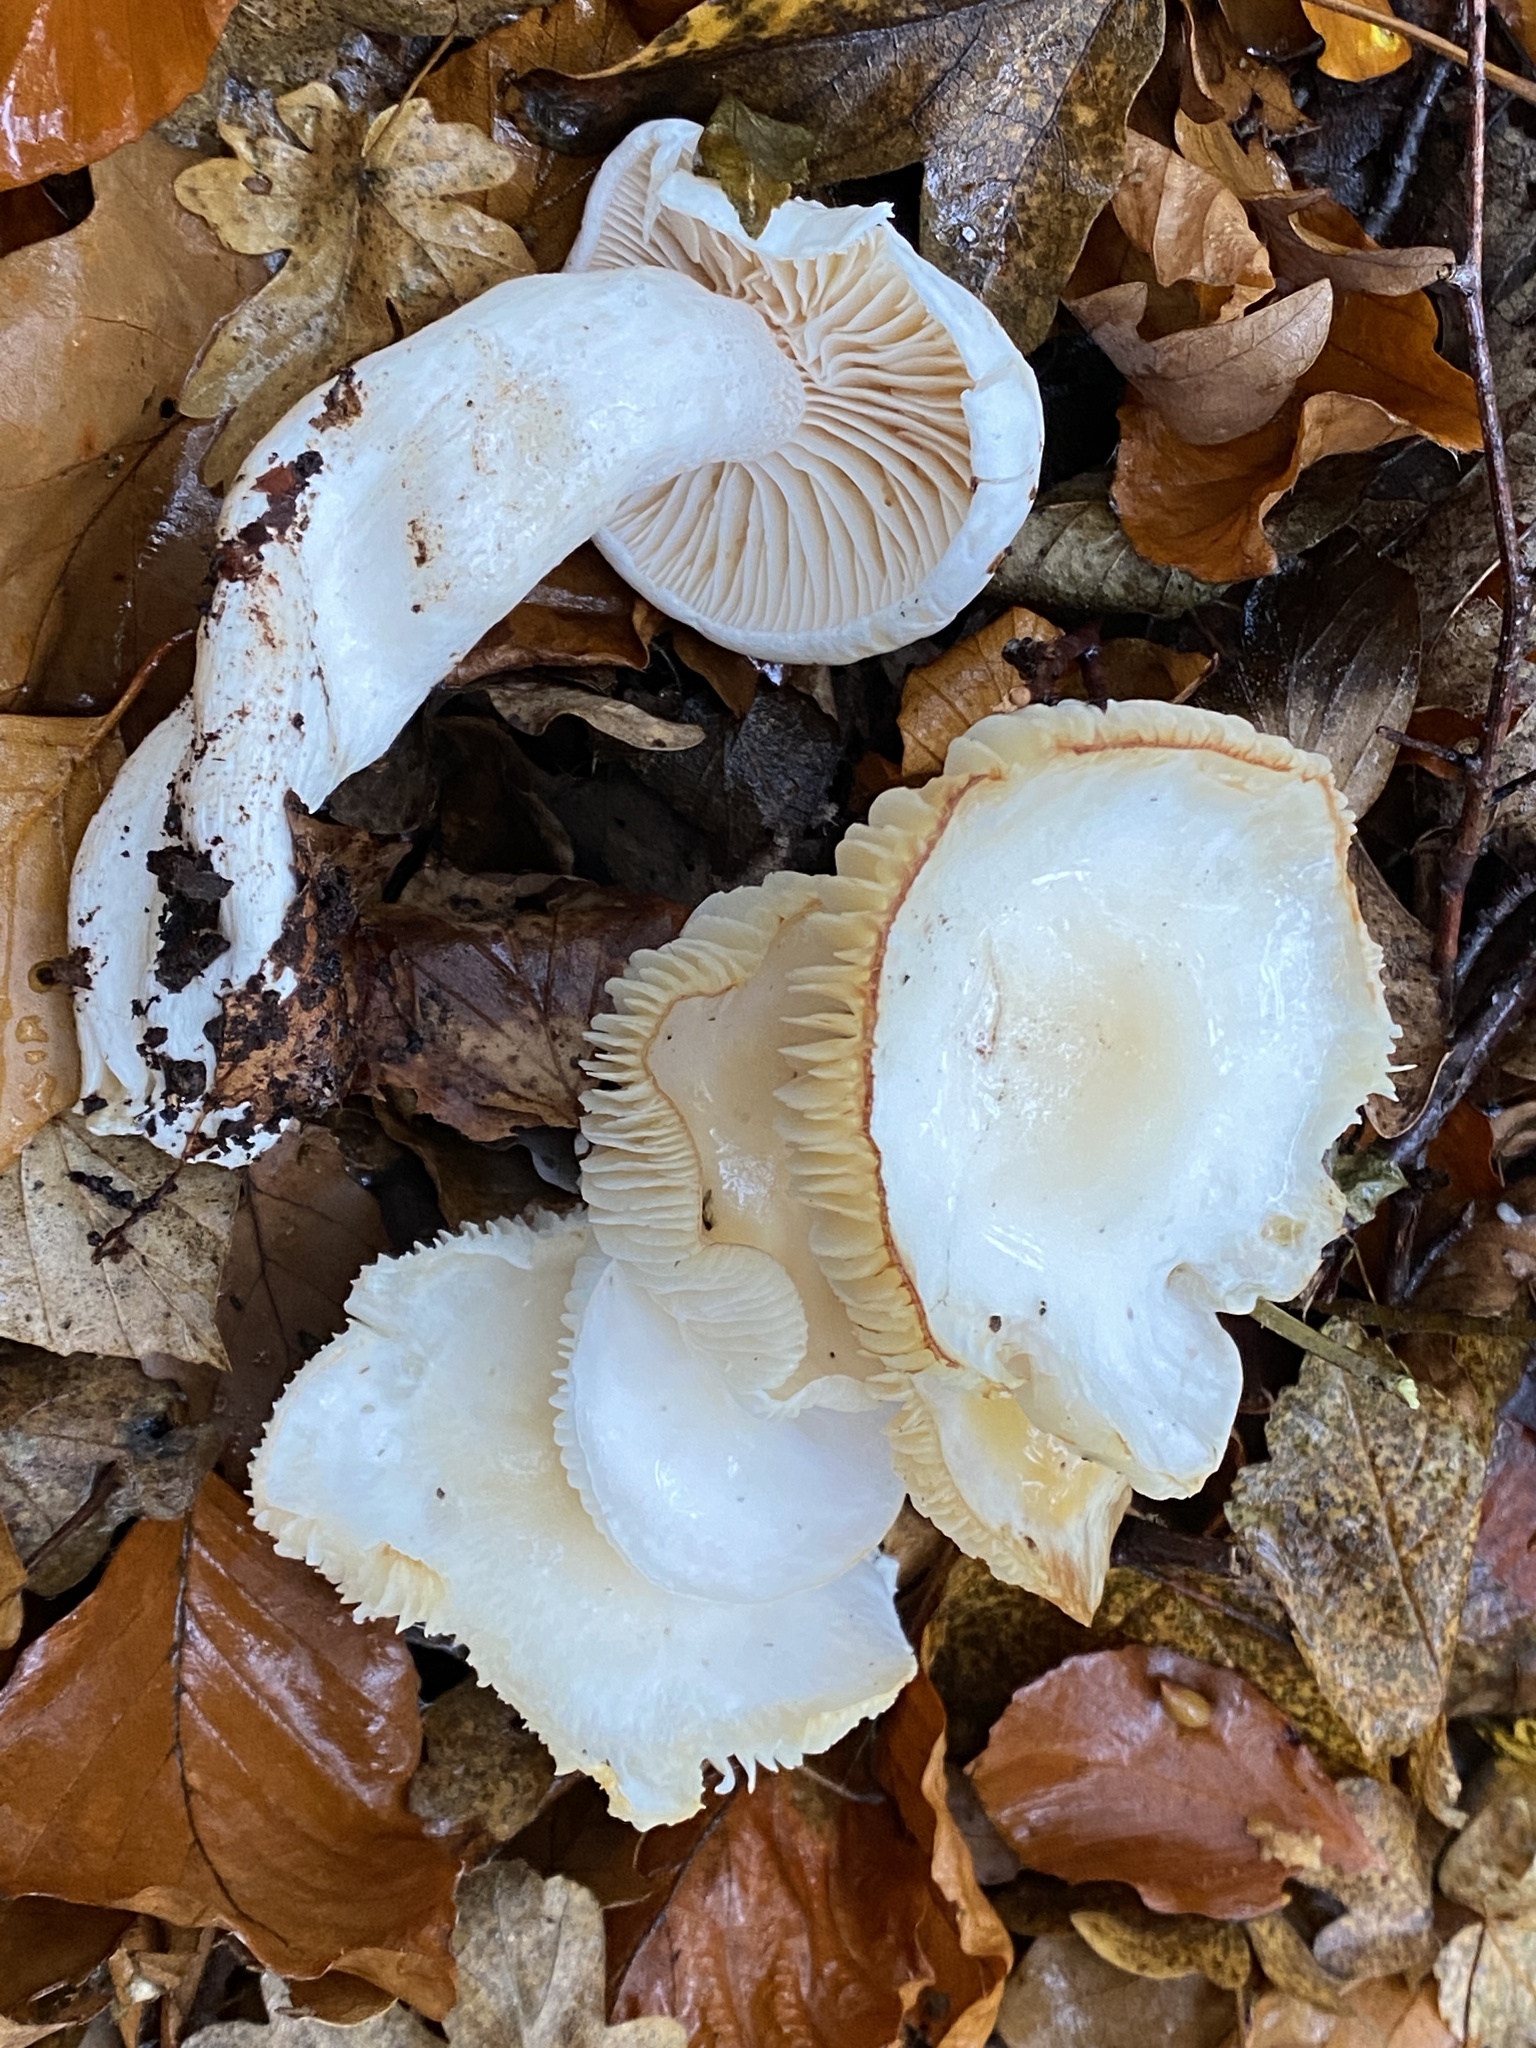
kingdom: Fungi
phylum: Basidiomycota
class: Agaricomycetes
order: Agaricales
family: Hygrophoraceae
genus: Hygrophorus
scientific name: Hygrophorus eburneus
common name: Ivory wax-cap
